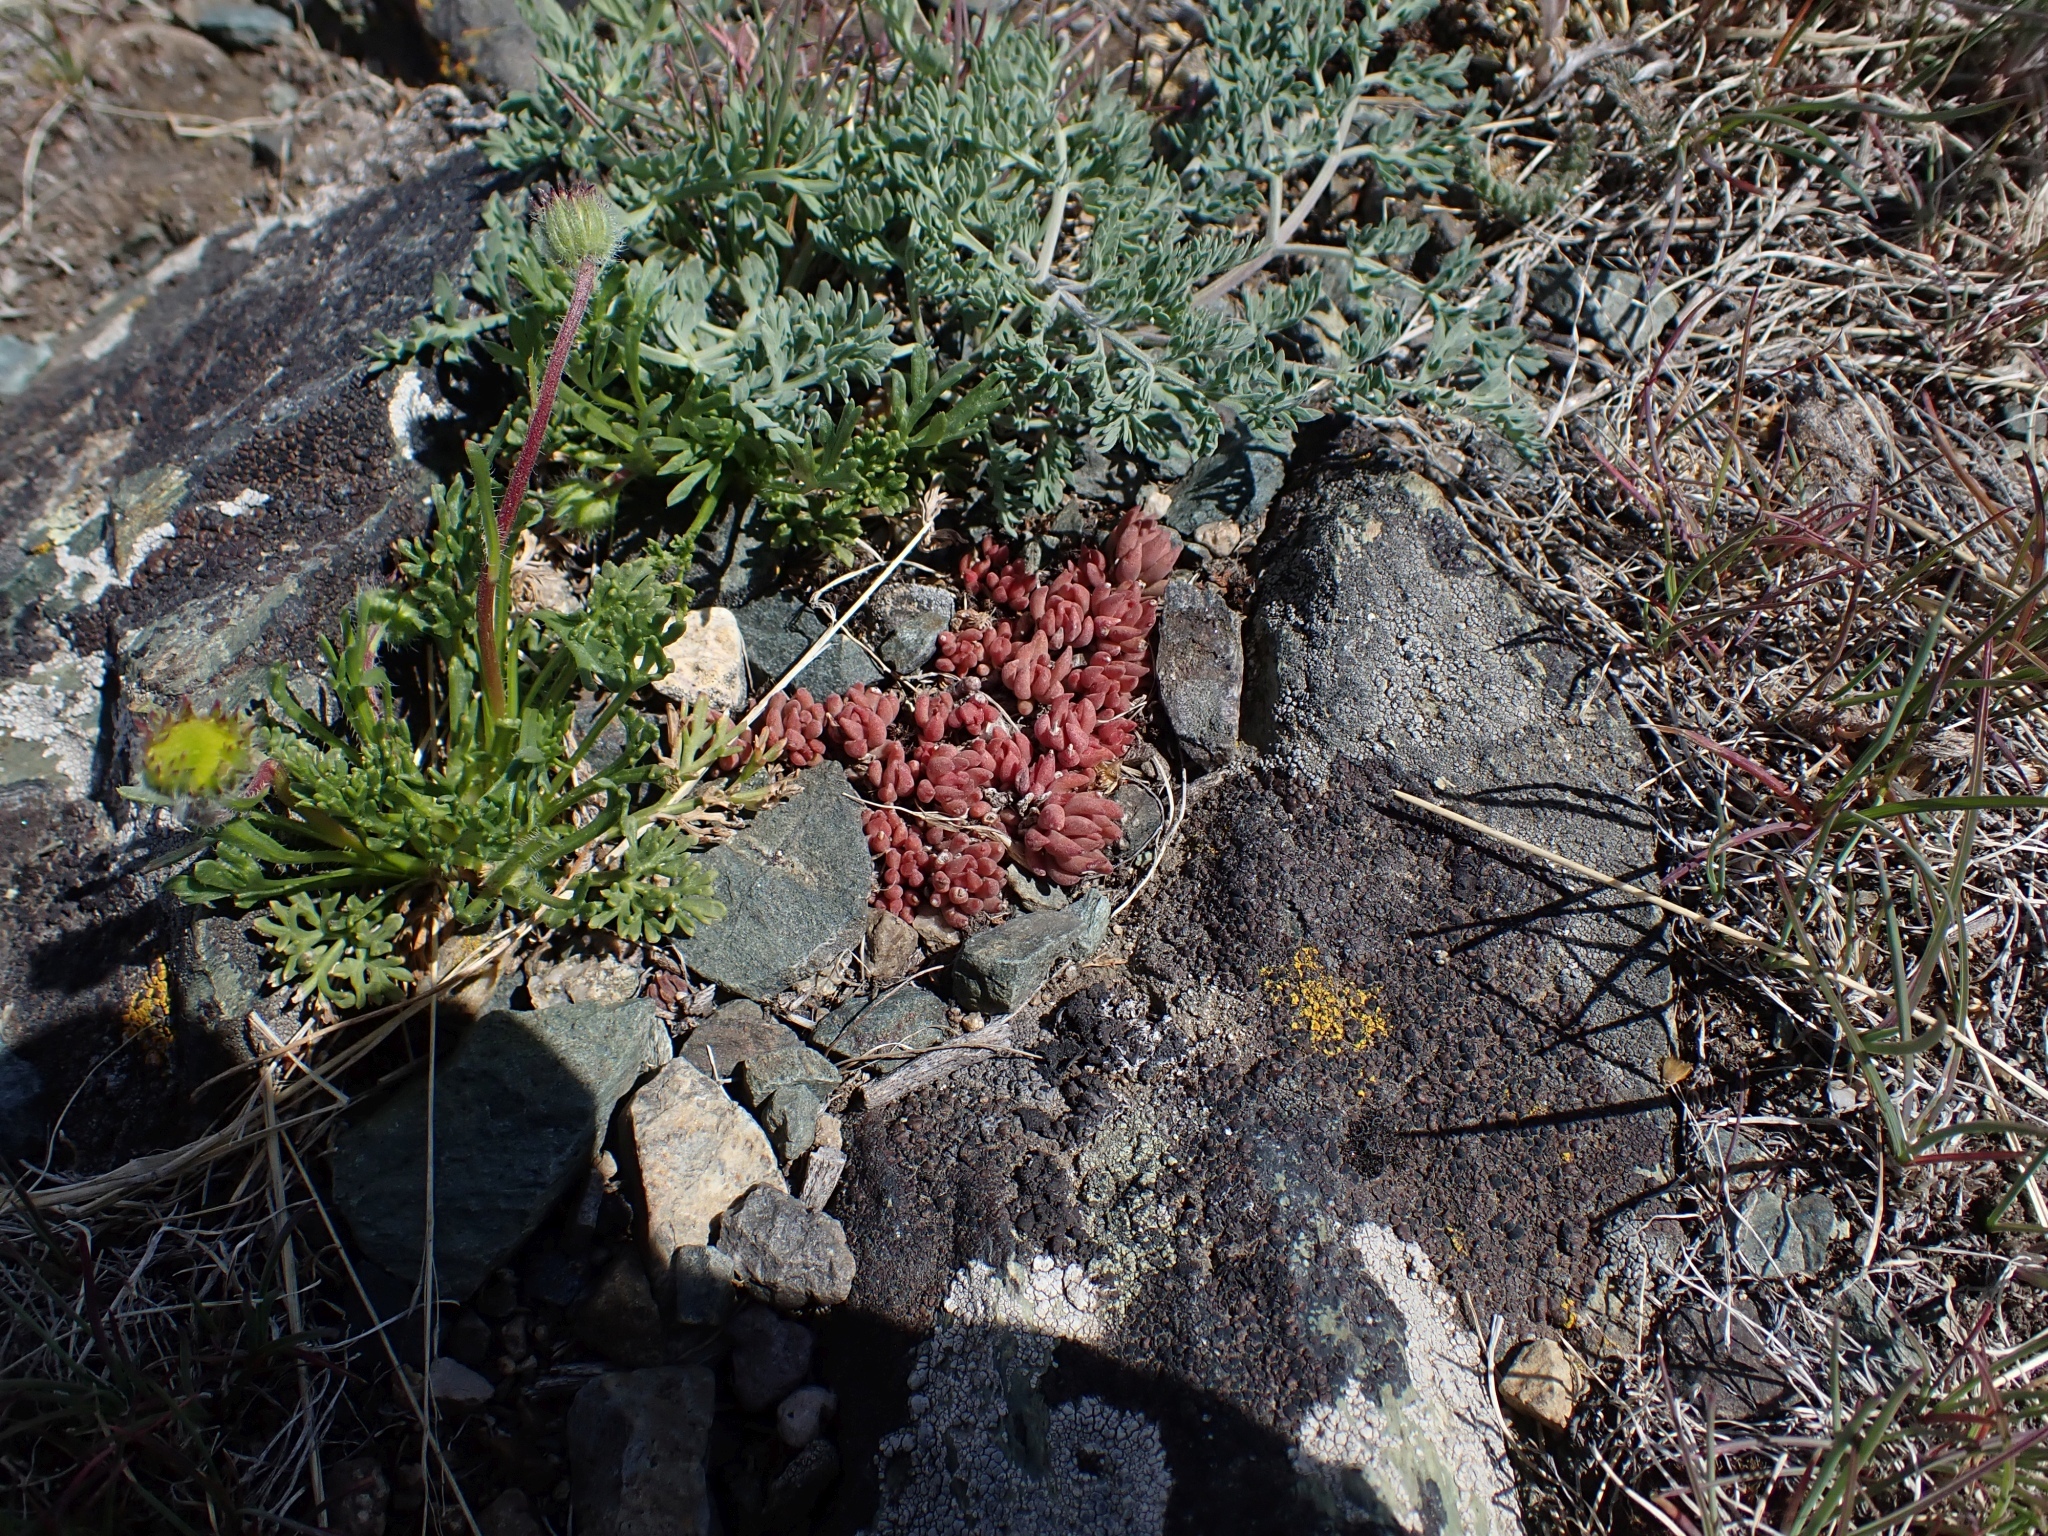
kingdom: Plantae
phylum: Tracheophyta
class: Magnoliopsida
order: Saxifragales
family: Crassulaceae
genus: Sedum
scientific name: Sedum lanceolatum
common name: Common stonecrop
